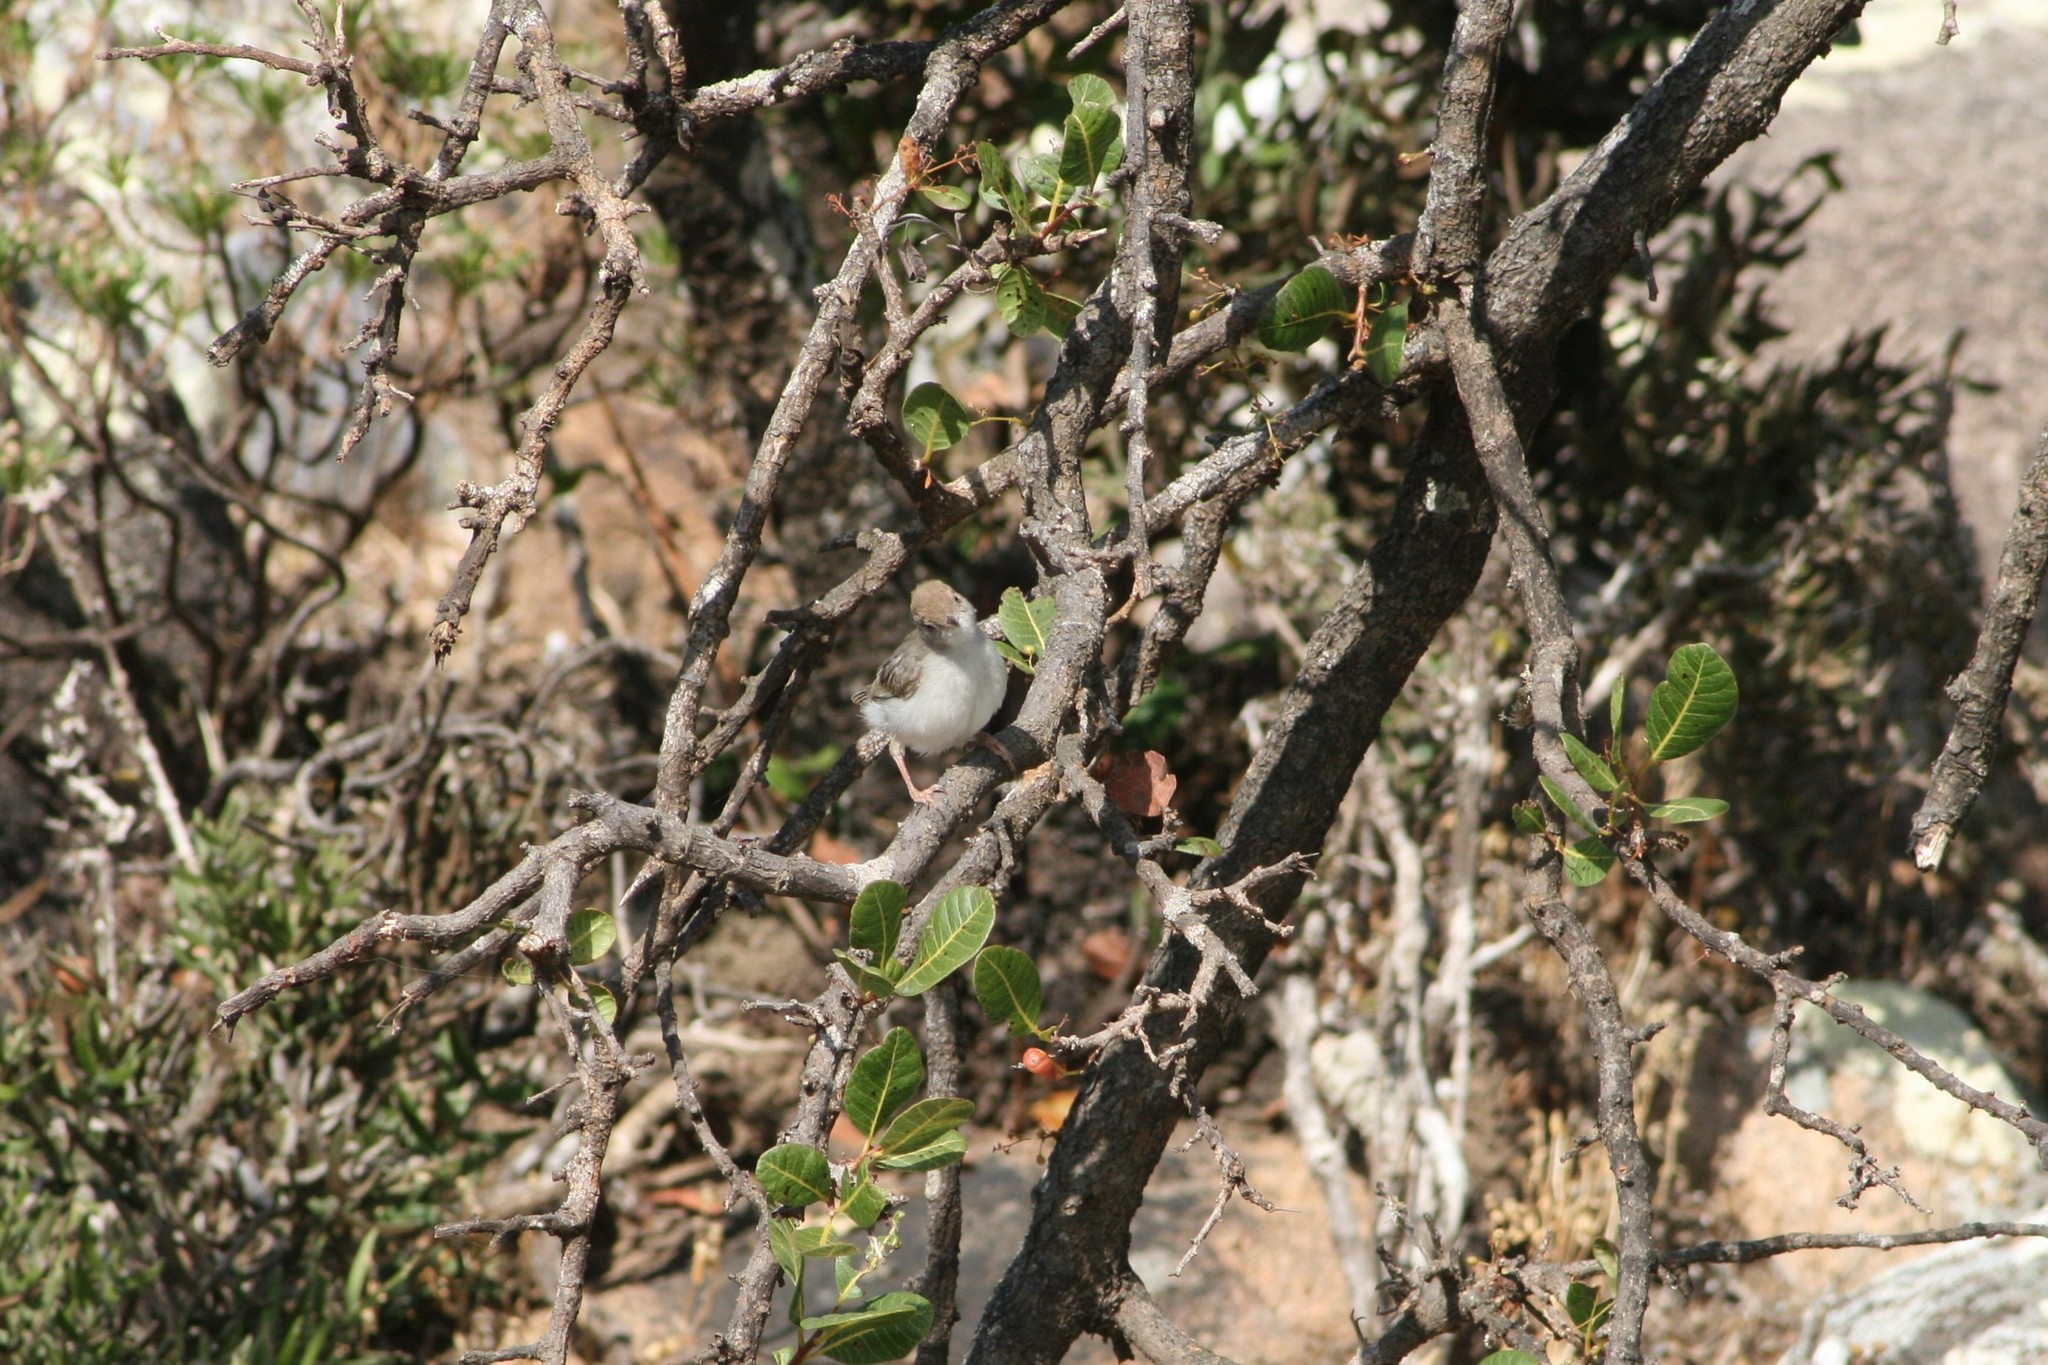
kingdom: Animalia
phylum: Chordata
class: Aves
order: Passeriformes
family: Cisticolidae
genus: Incana
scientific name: Incana incana
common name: Socotra warbler
